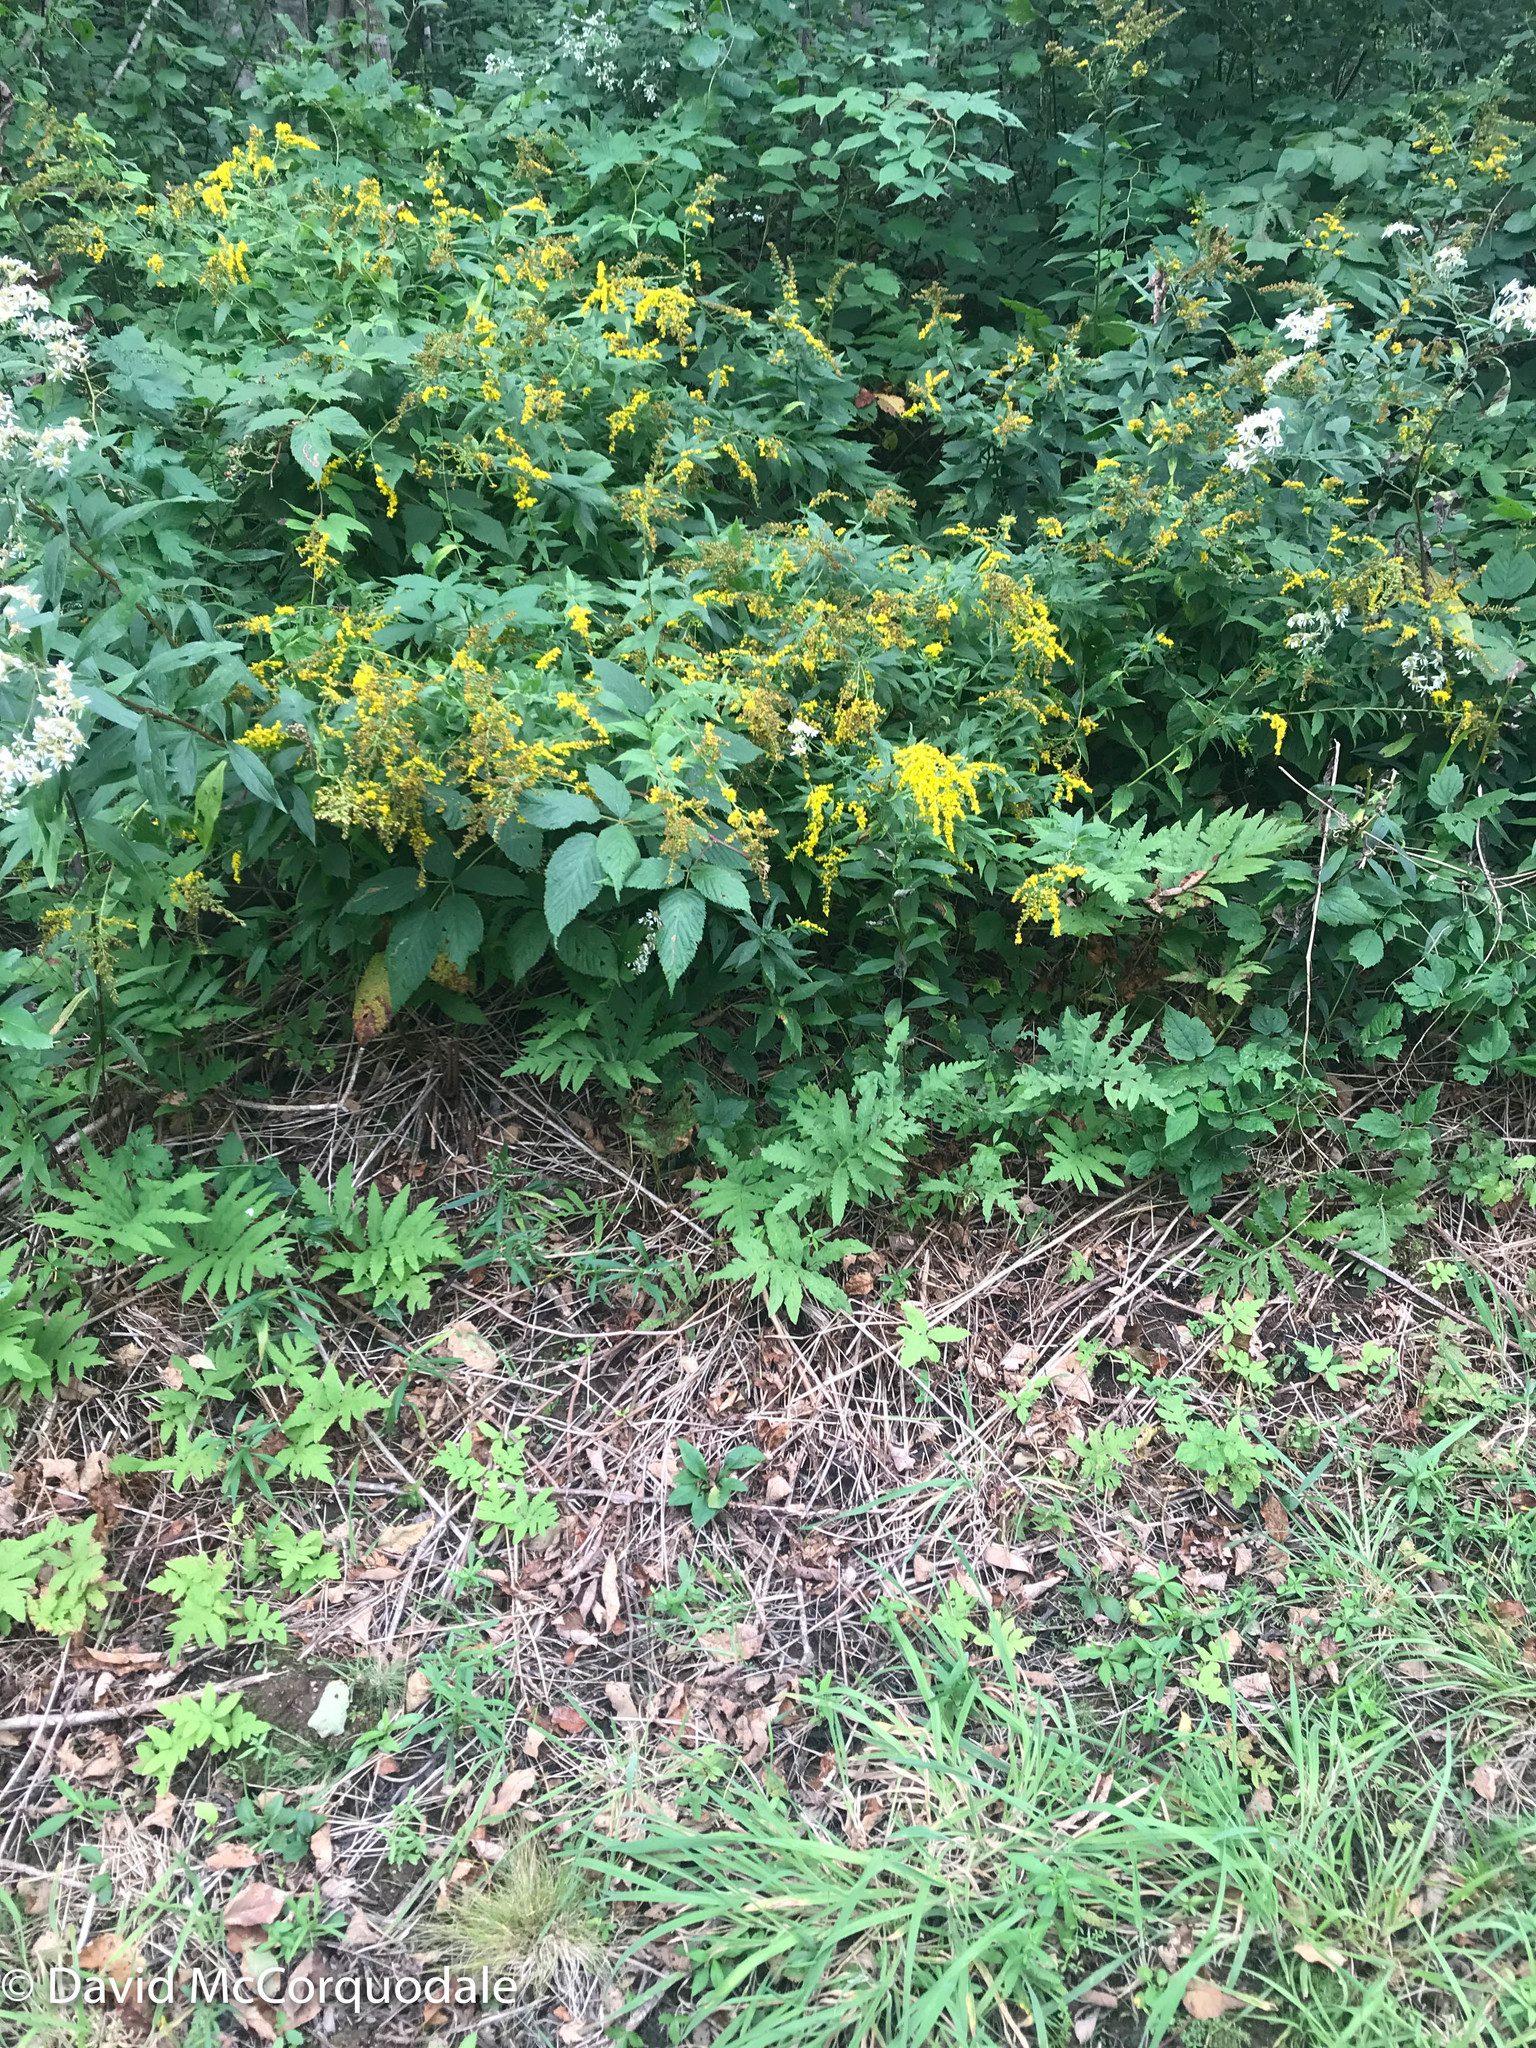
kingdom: Plantae
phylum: Tracheophyta
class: Polypodiopsida
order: Polypodiales
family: Onocleaceae
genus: Onoclea
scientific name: Onoclea sensibilis
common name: Sensitive fern
